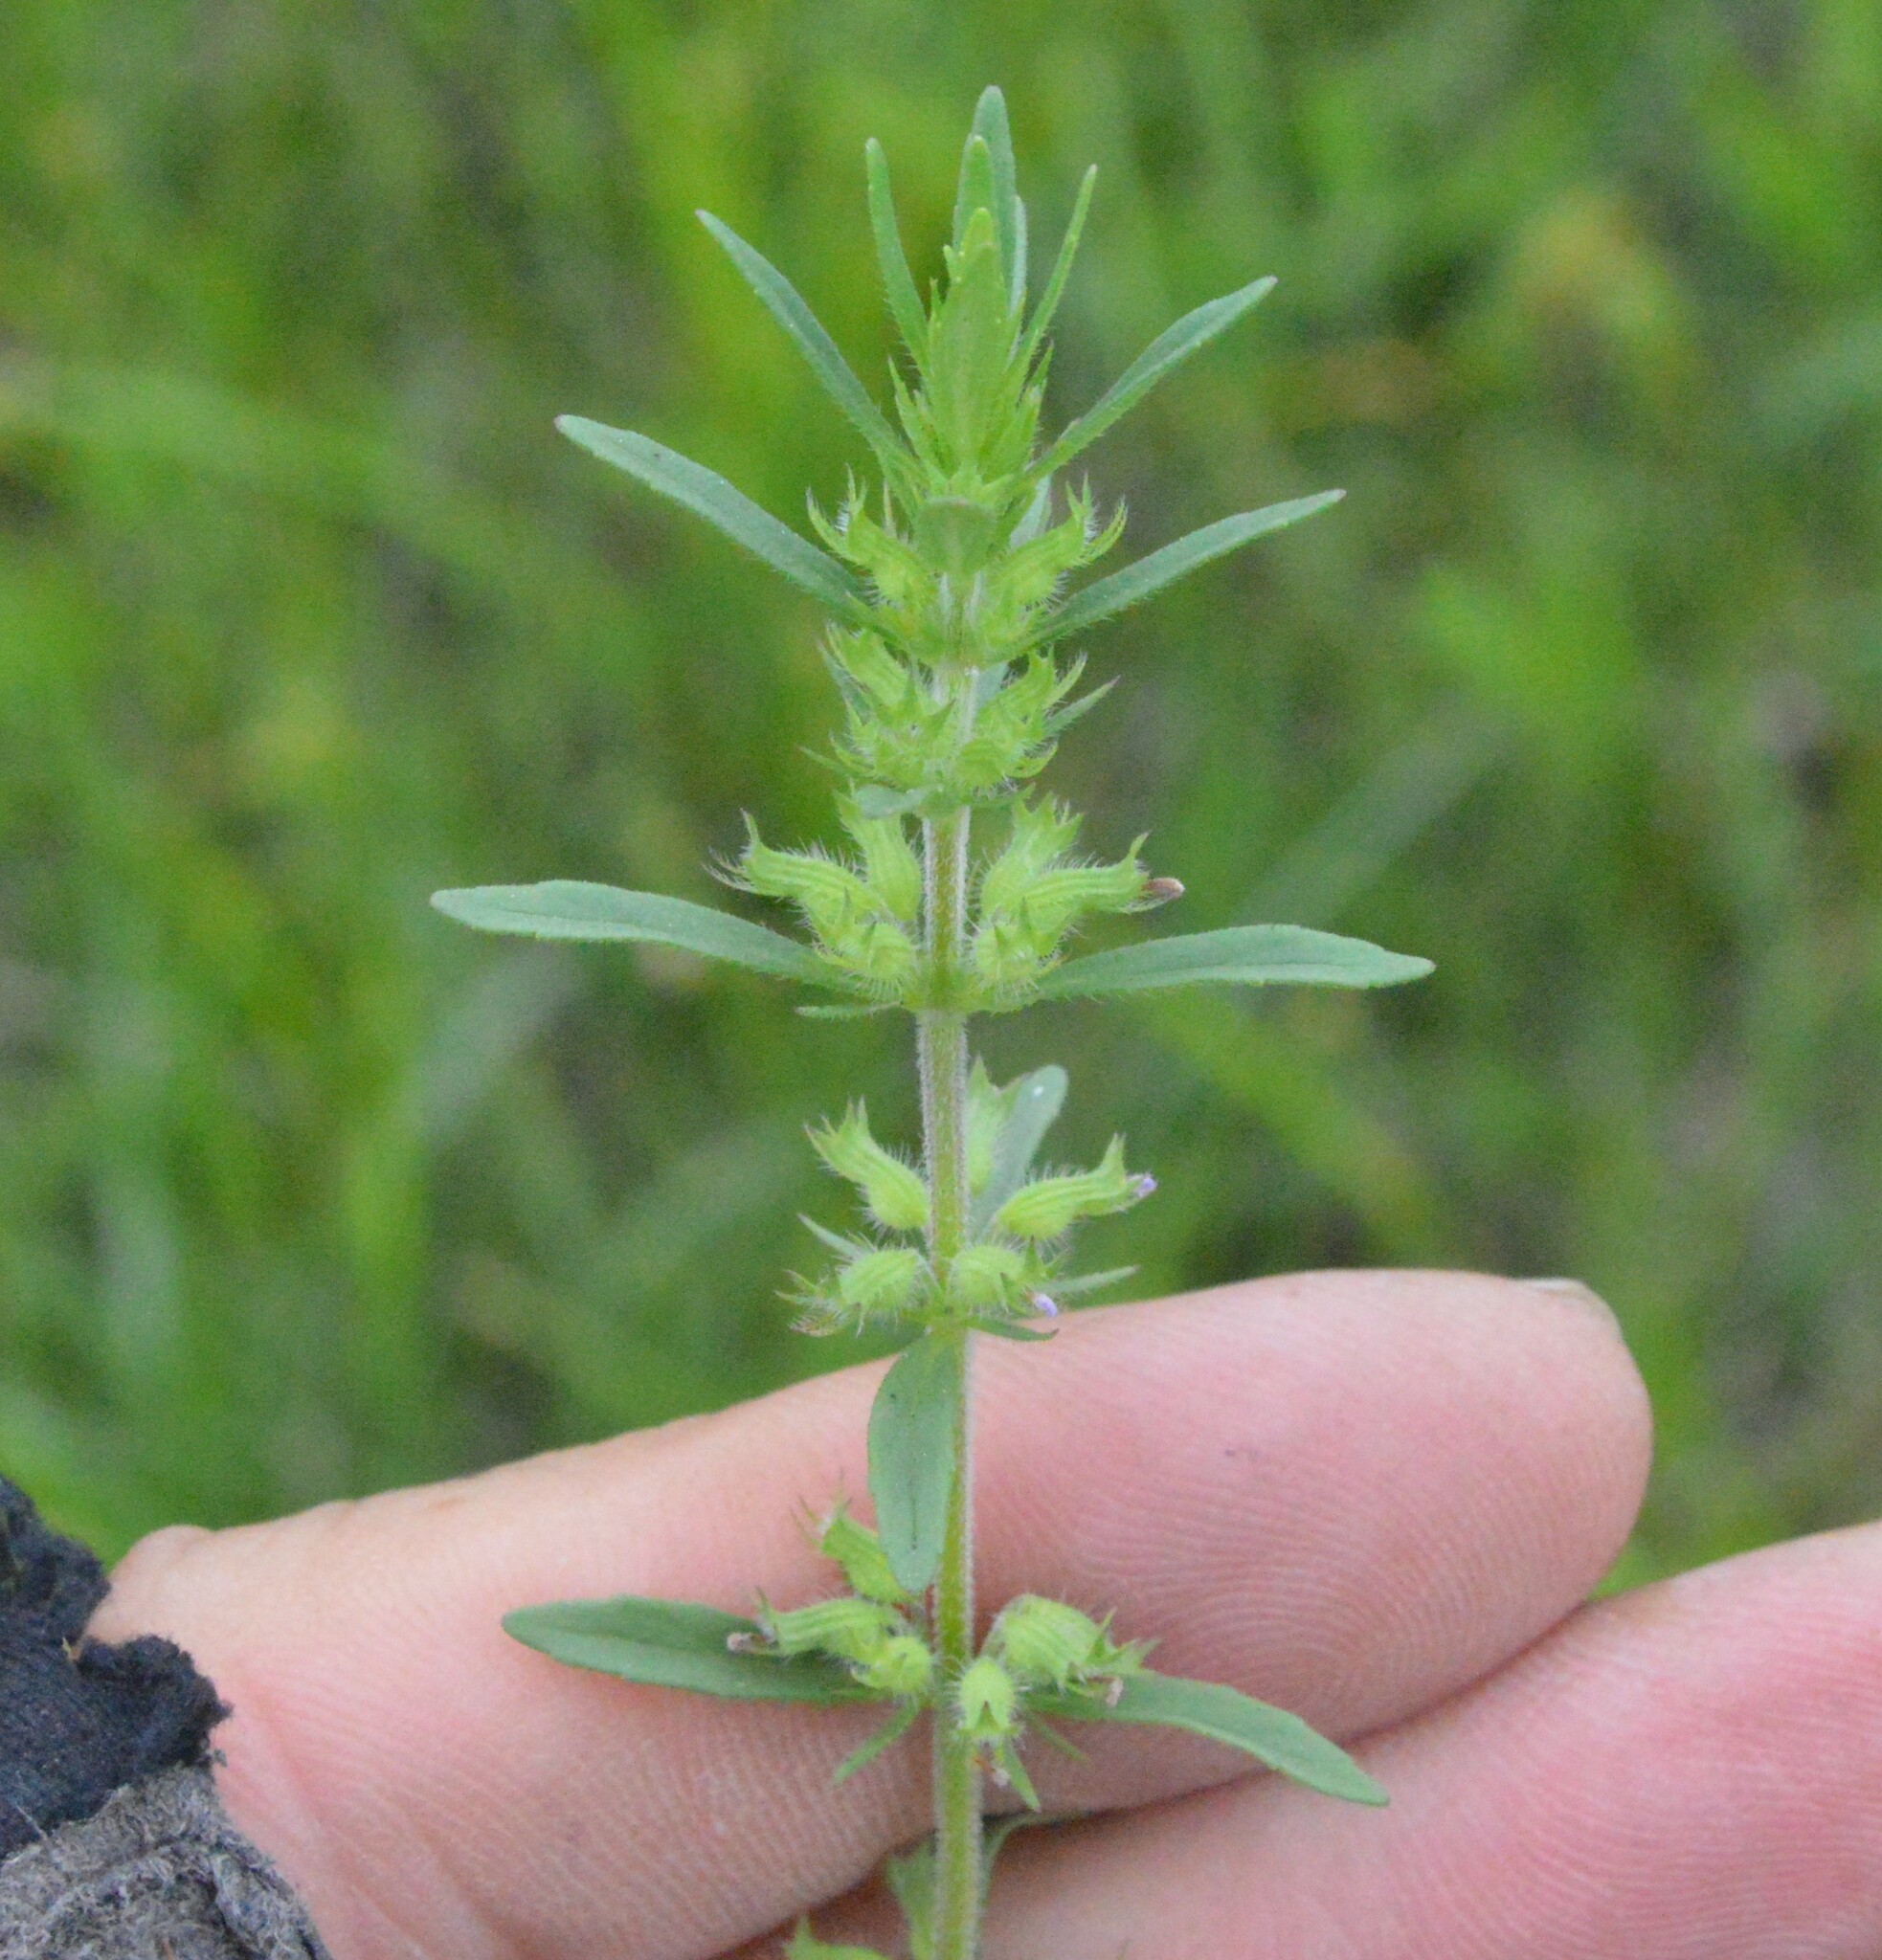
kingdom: Plantae
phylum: Tracheophyta
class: Magnoliopsida
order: Lamiales
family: Lamiaceae
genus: Hedeoma
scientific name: Hedeoma hispida
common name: Mock pennyroyal
